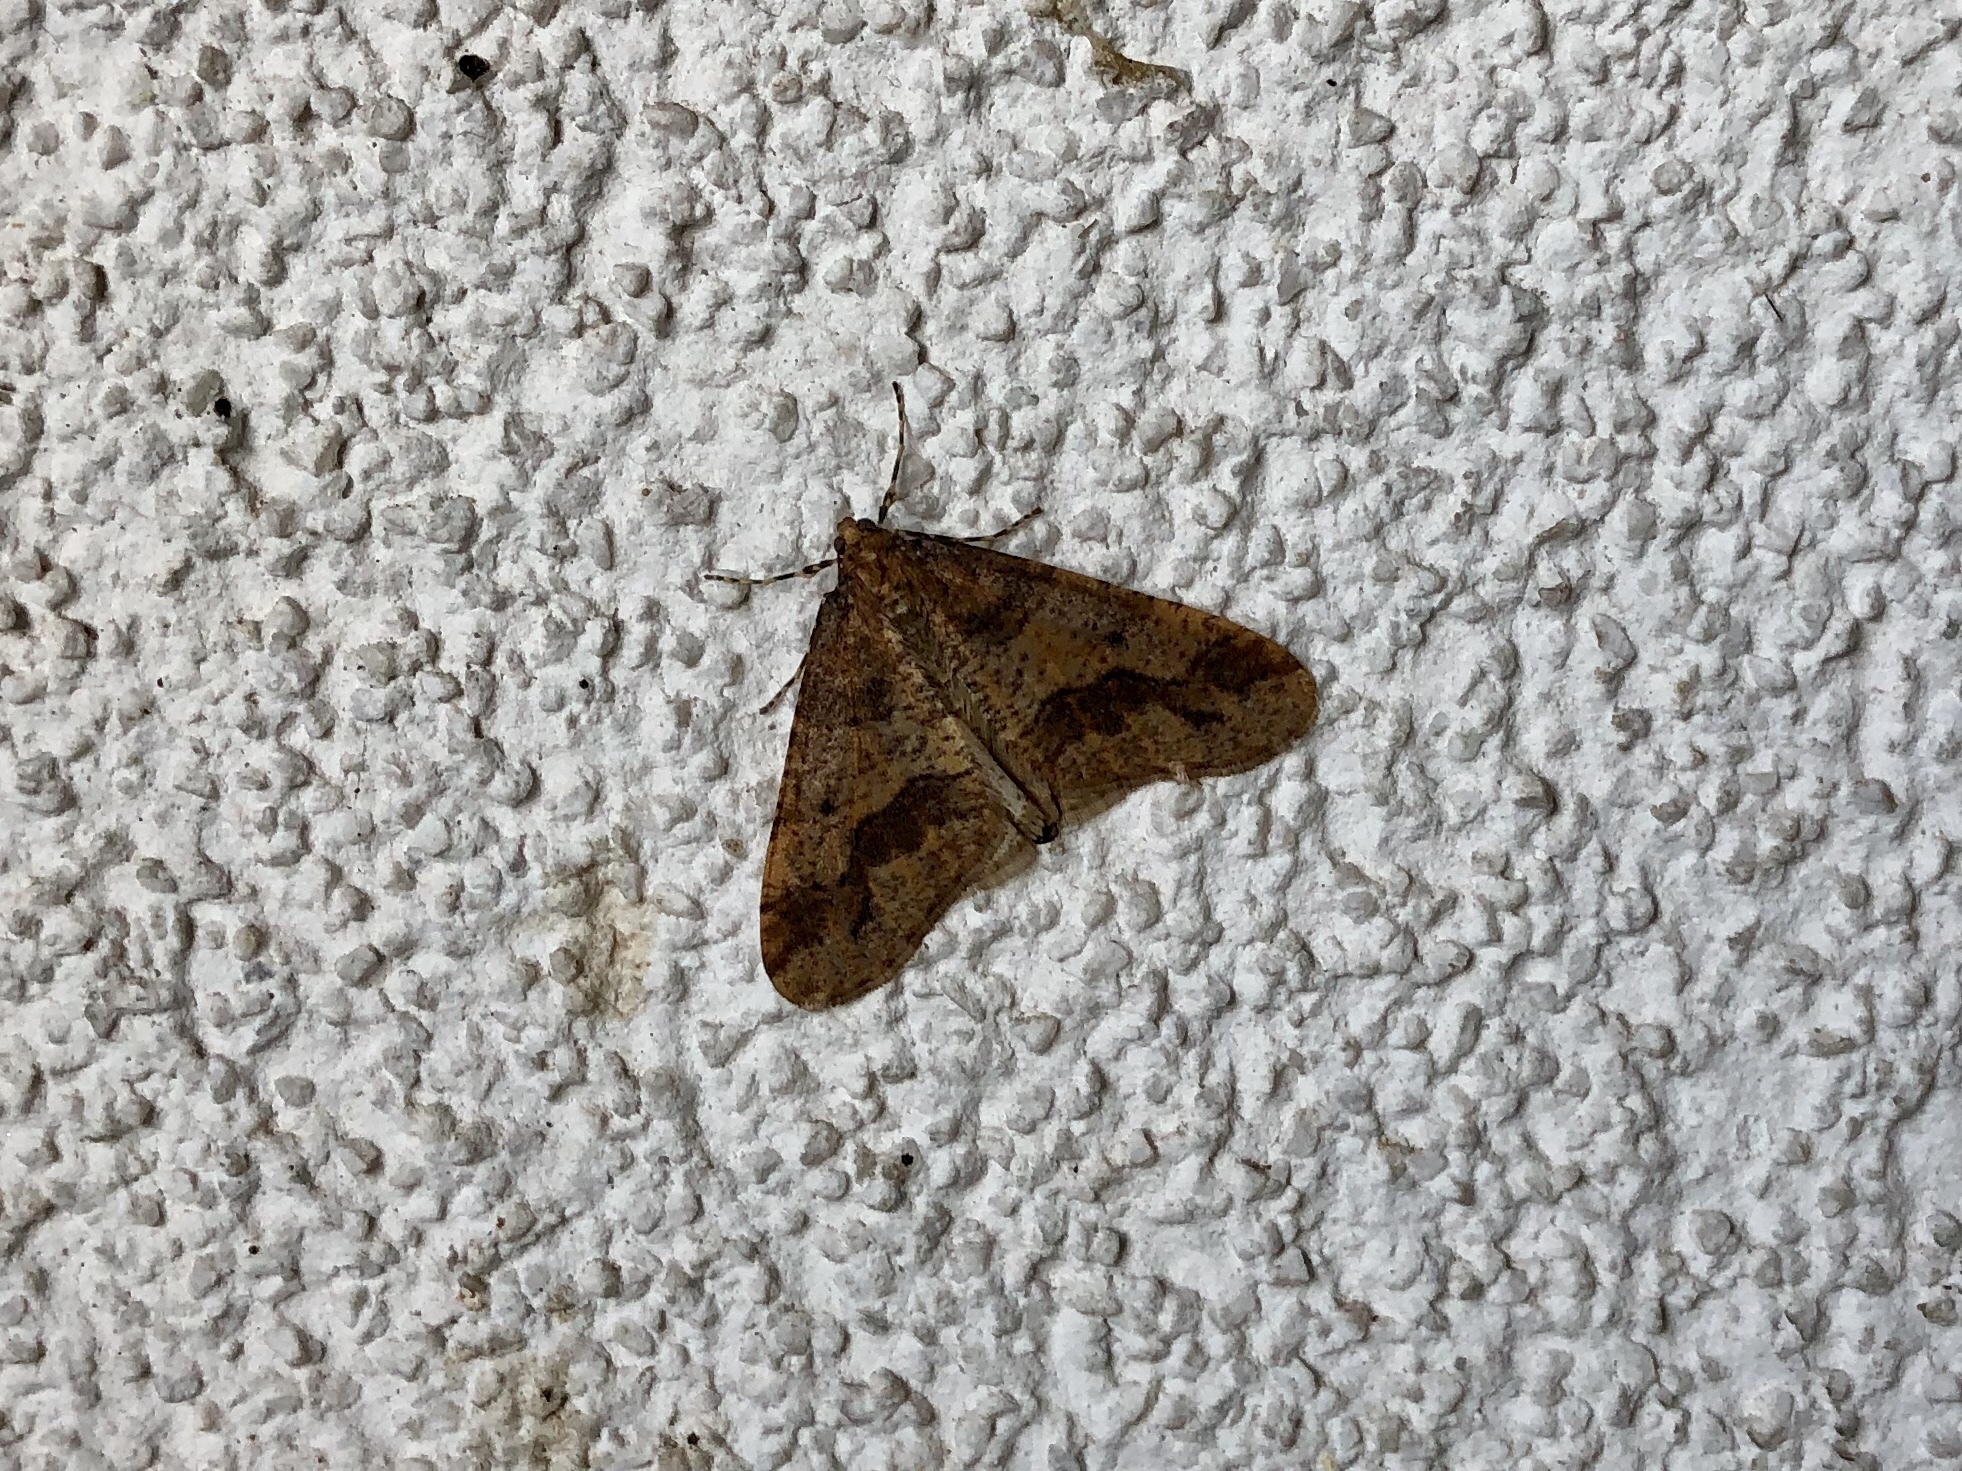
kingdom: Animalia
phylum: Arthropoda
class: Insecta
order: Lepidoptera
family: Geometridae
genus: Erannis
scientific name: Erannis defoliaria
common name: Mottled umber
